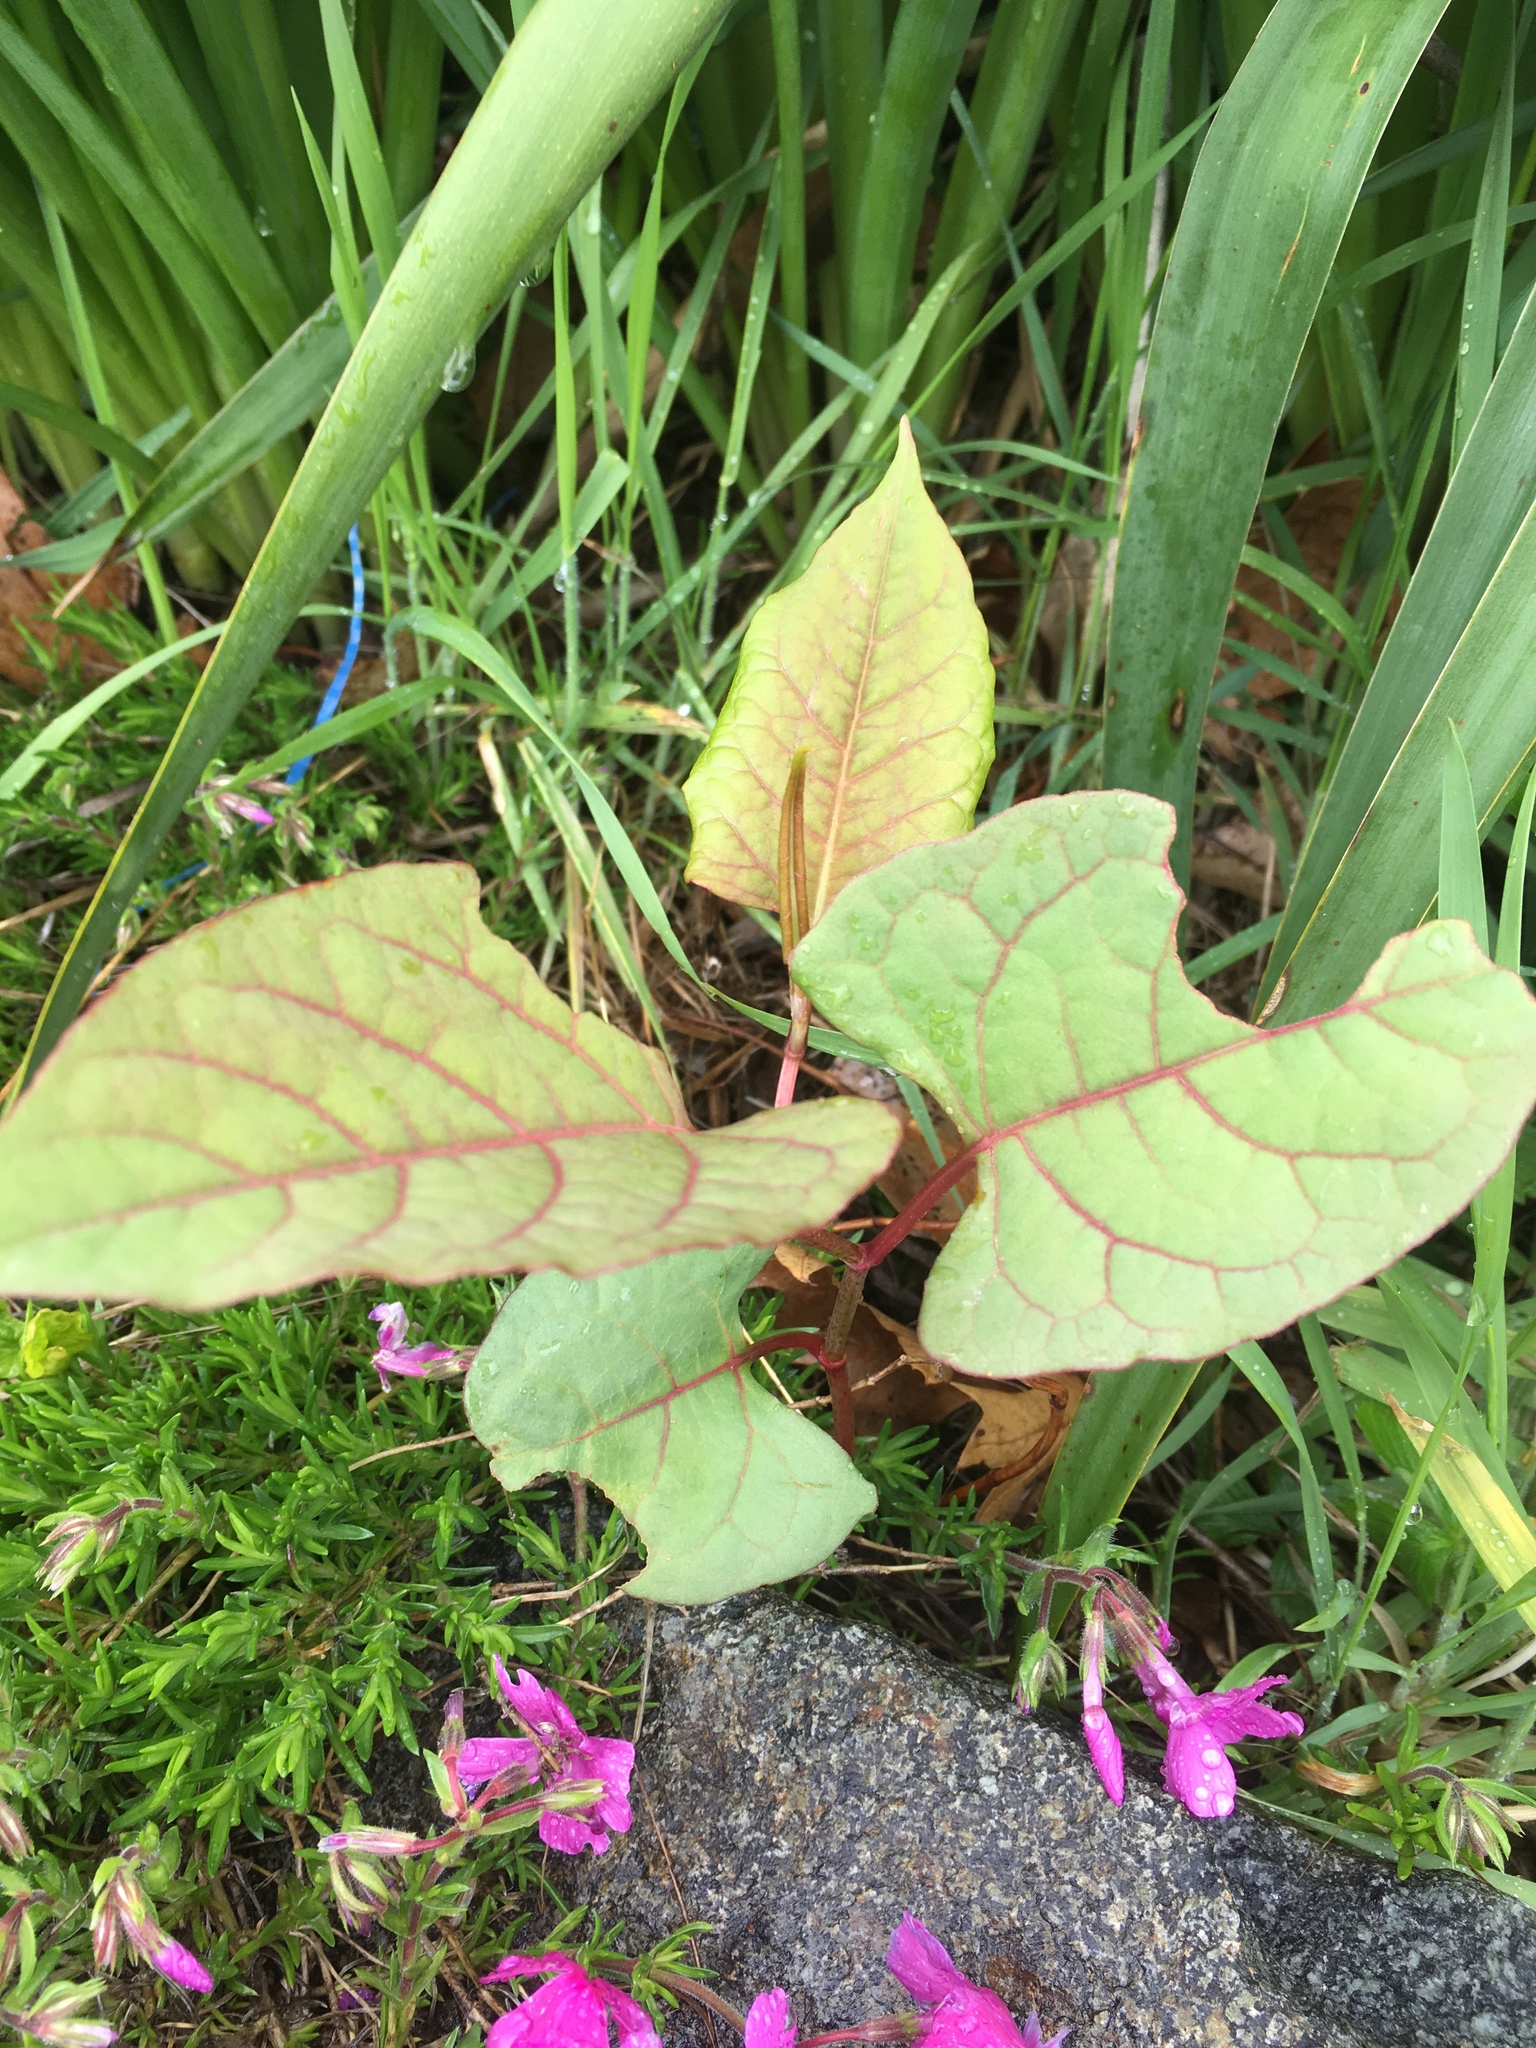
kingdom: Plantae
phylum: Tracheophyta
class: Magnoliopsida
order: Caryophyllales
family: Polygonaceae
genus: Reynoutria
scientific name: Reynoutria japonica
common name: Japanese knotweed
